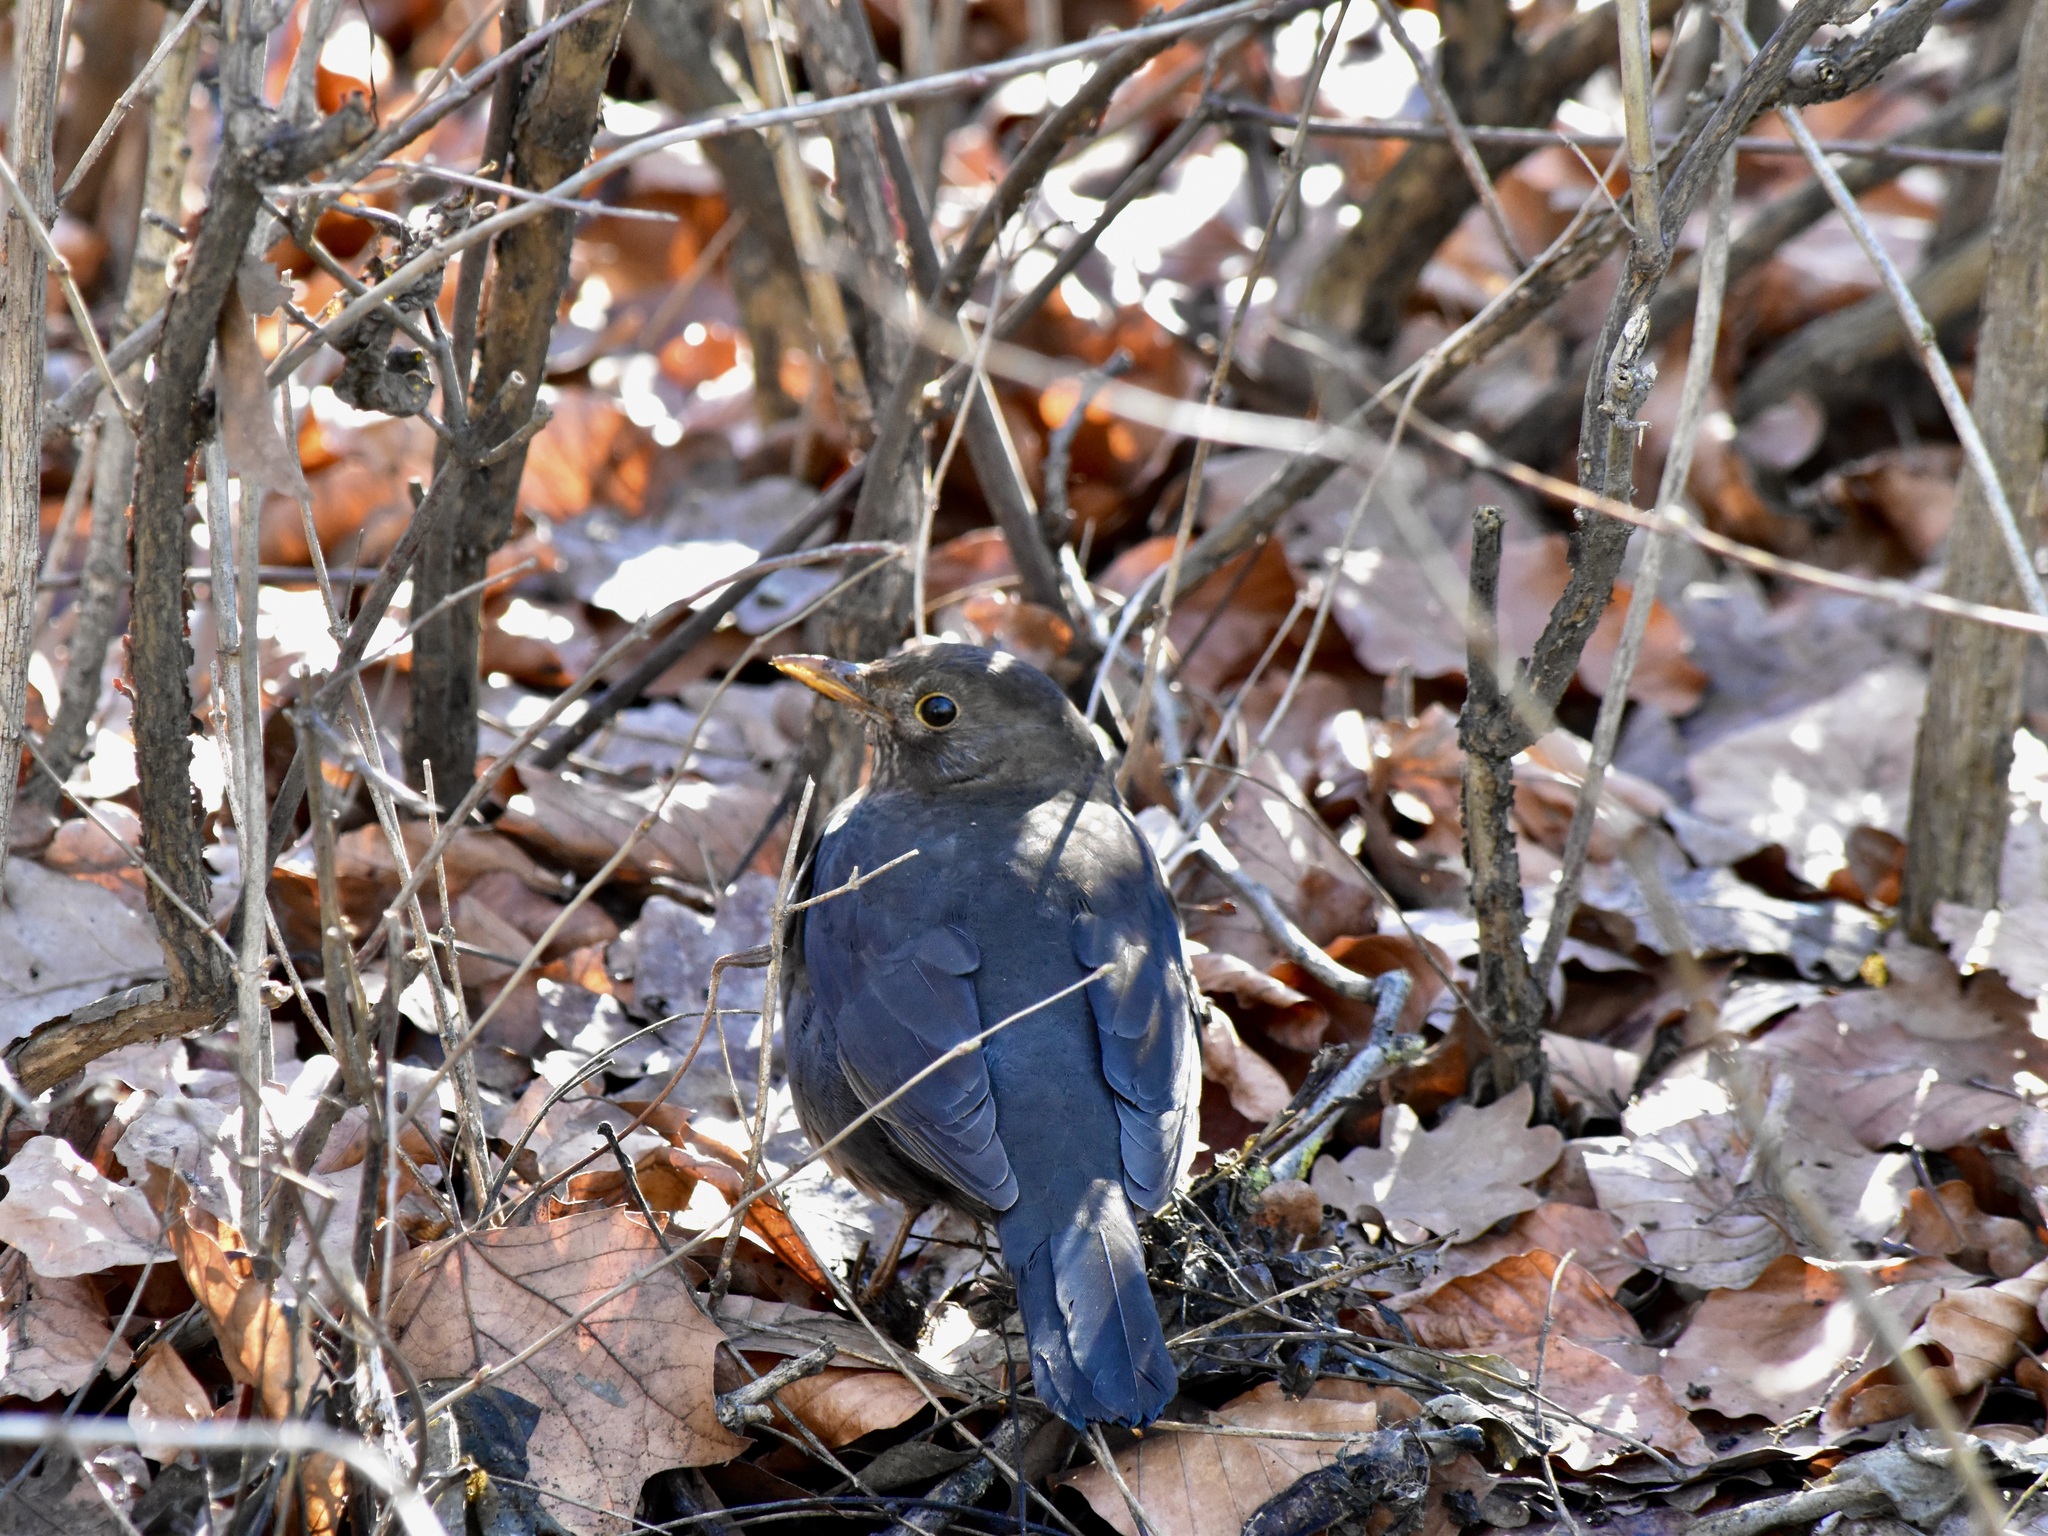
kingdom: Animalia
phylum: Chordata
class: Aves
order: Passeriformes
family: Turdidae
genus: Turdus
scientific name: Turdus merula
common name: Common blackbird
